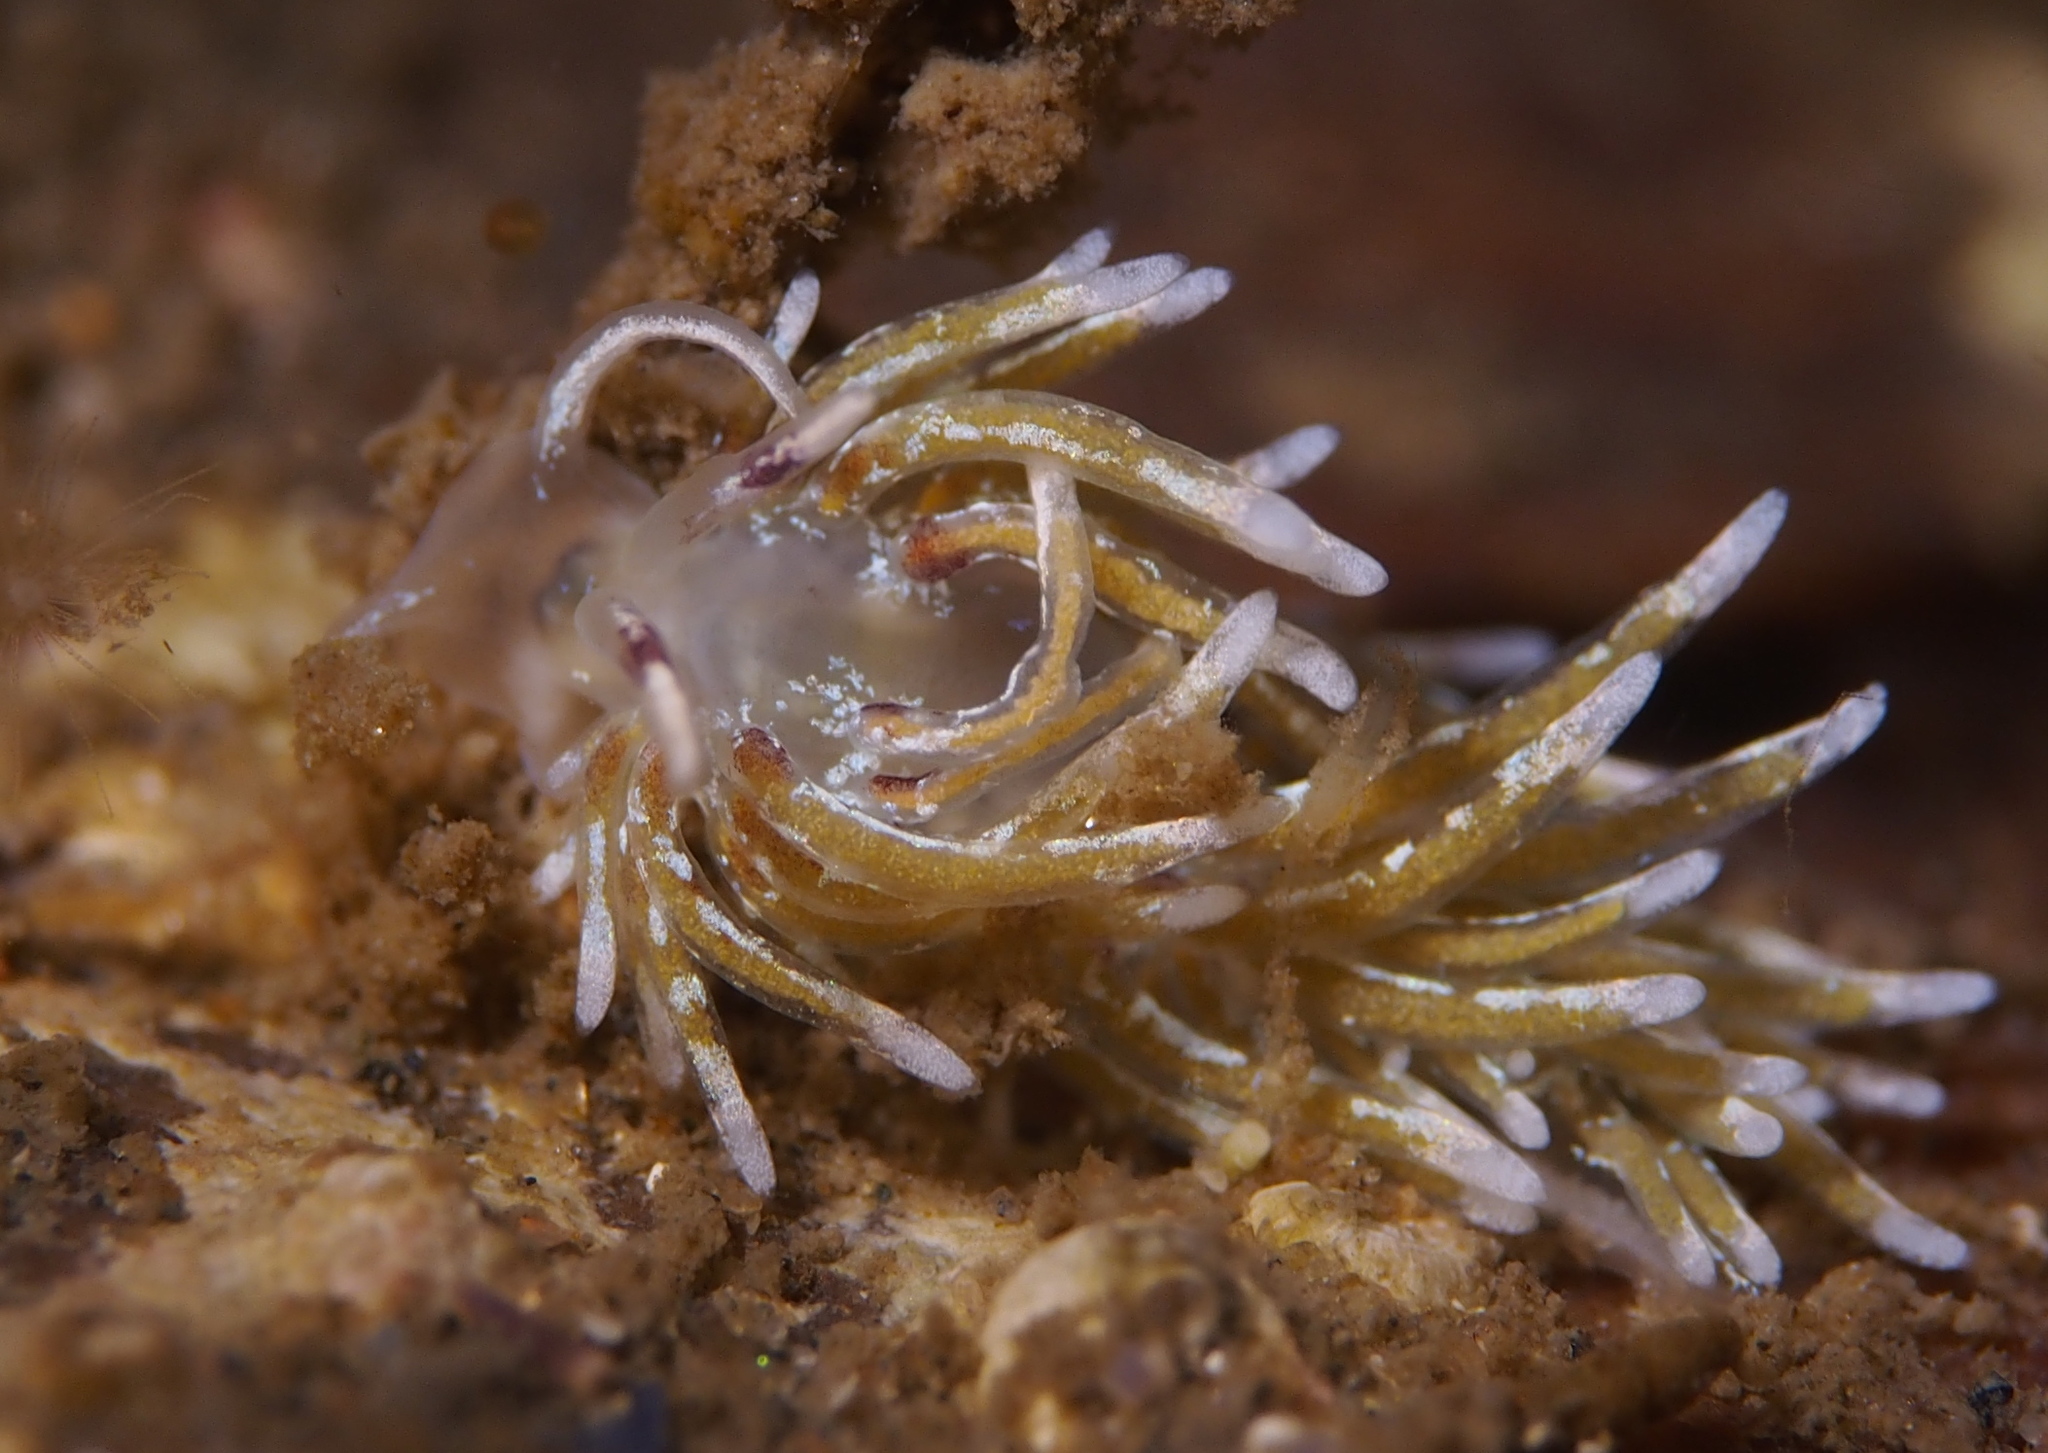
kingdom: Animalia
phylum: Mollusca
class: Gastropoda
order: Nudibranchia
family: Trinchesiidae
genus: Rubramoena
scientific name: Rubramoena rubescens
